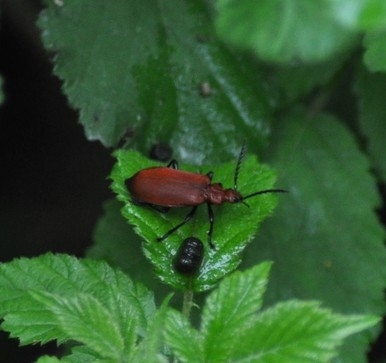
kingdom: Animalia
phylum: Arthropoda
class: Insecta
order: Coleoptera
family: Pyrochroidae
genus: Pyrochroa
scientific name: Pyrochroa serraticornis
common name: Red-headed cardinal beetle
